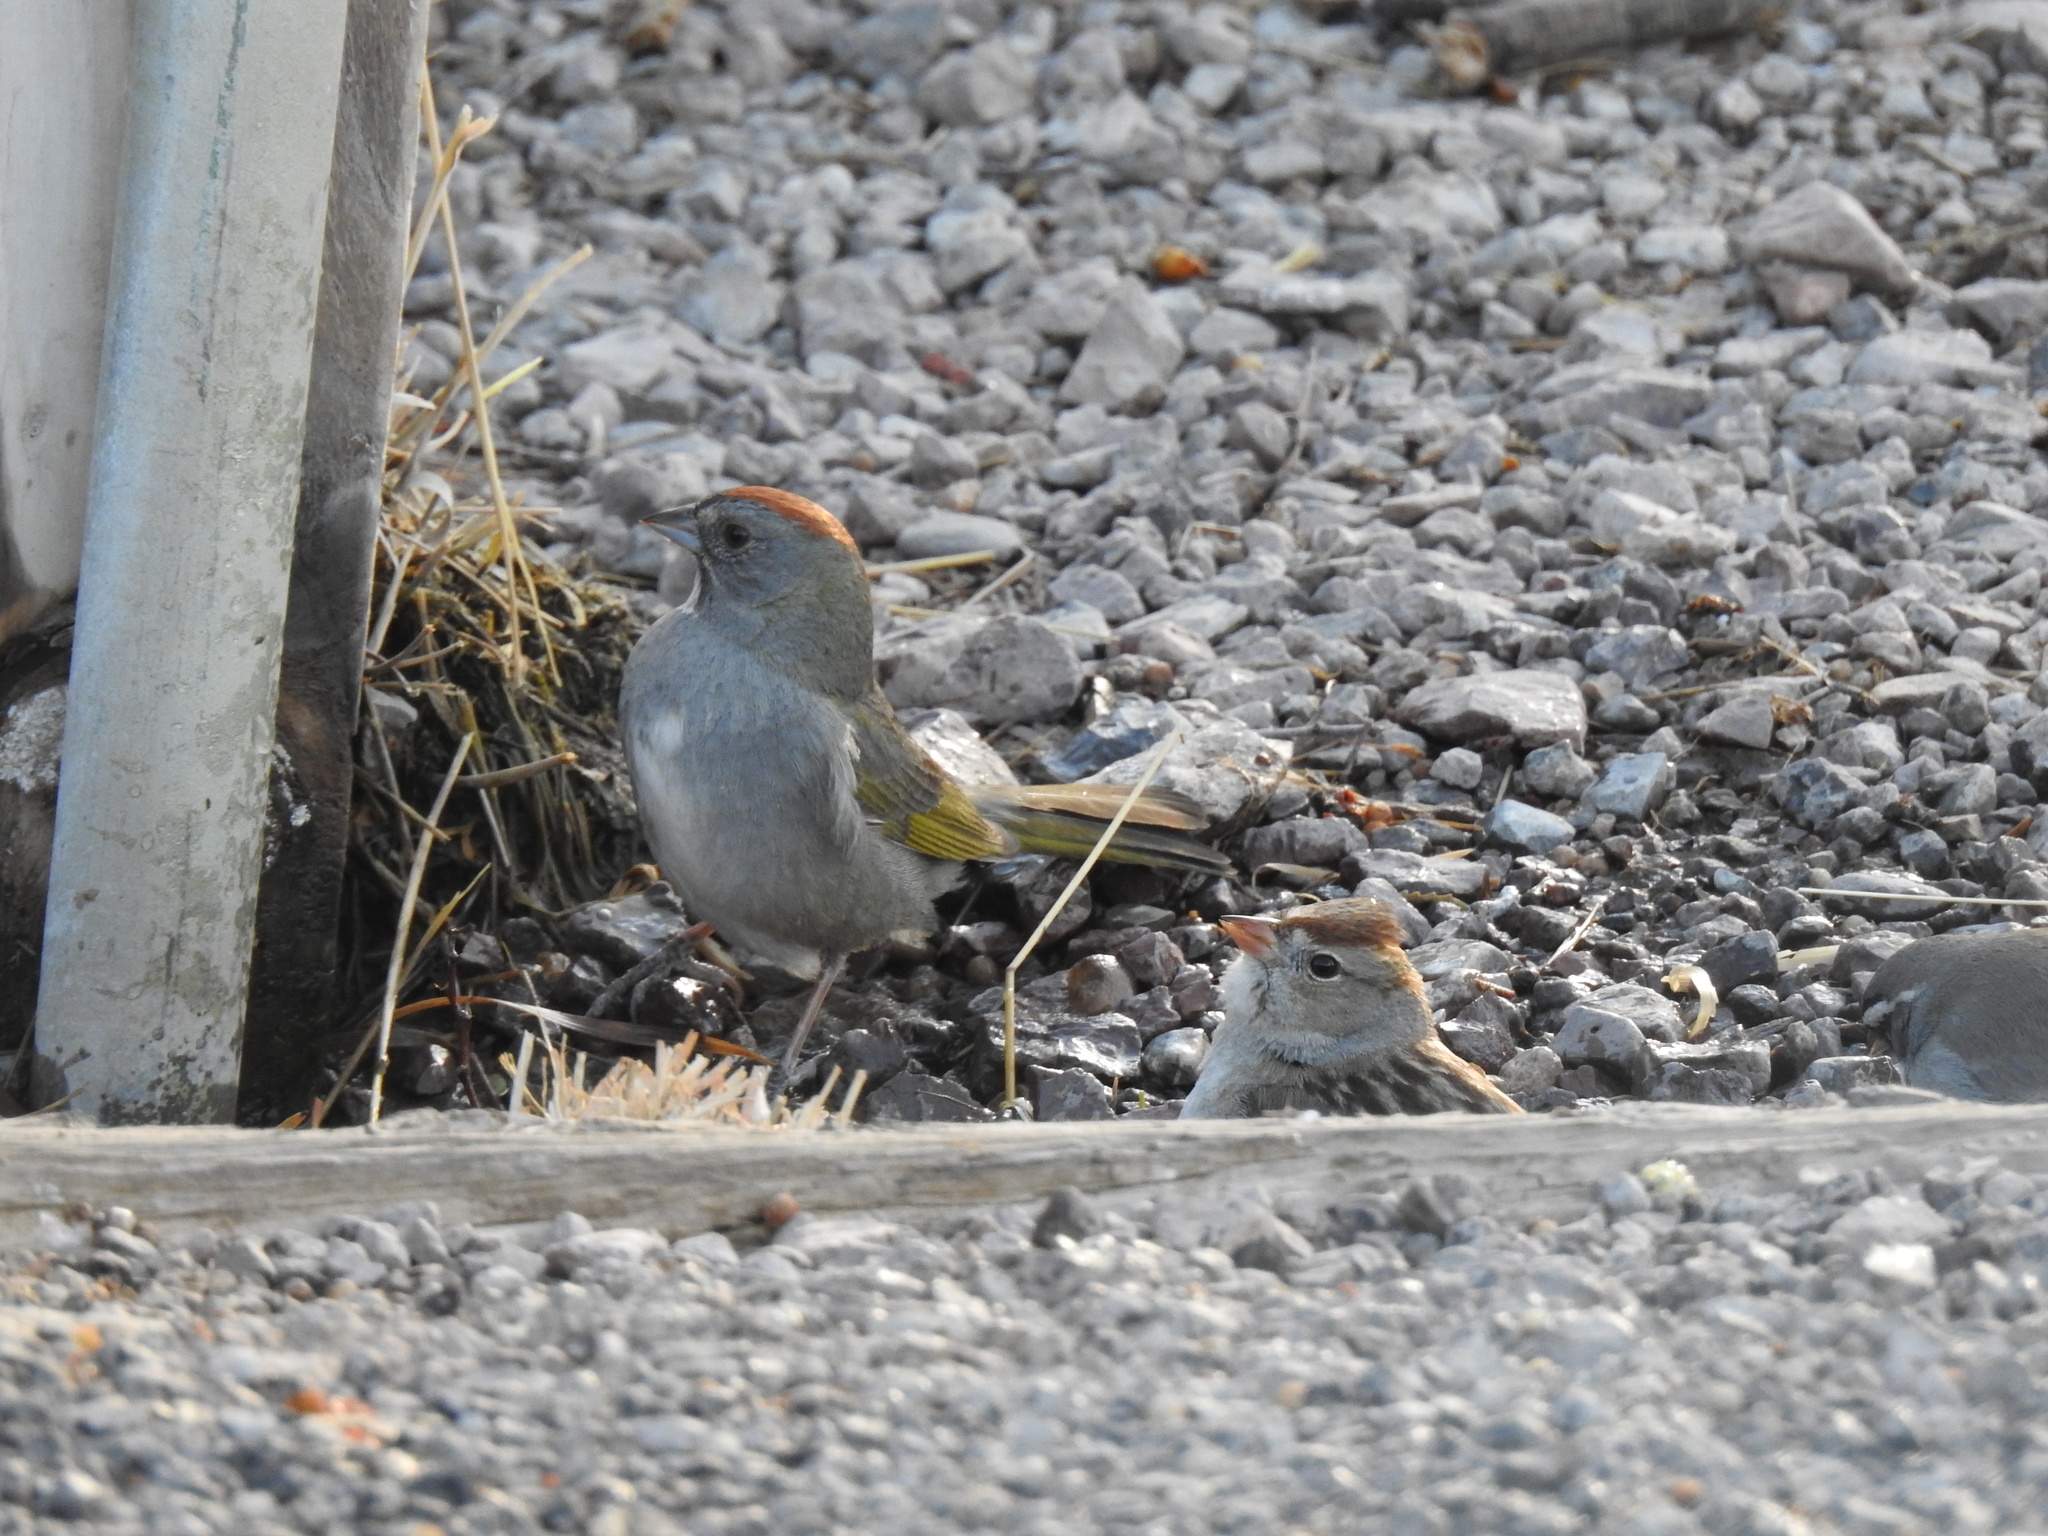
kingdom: Animalia
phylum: Chordata
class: Aves
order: Passeriformes
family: Passerellidae
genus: Pipilo
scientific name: Pipilo chlorurus
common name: Green-tailed towhee
